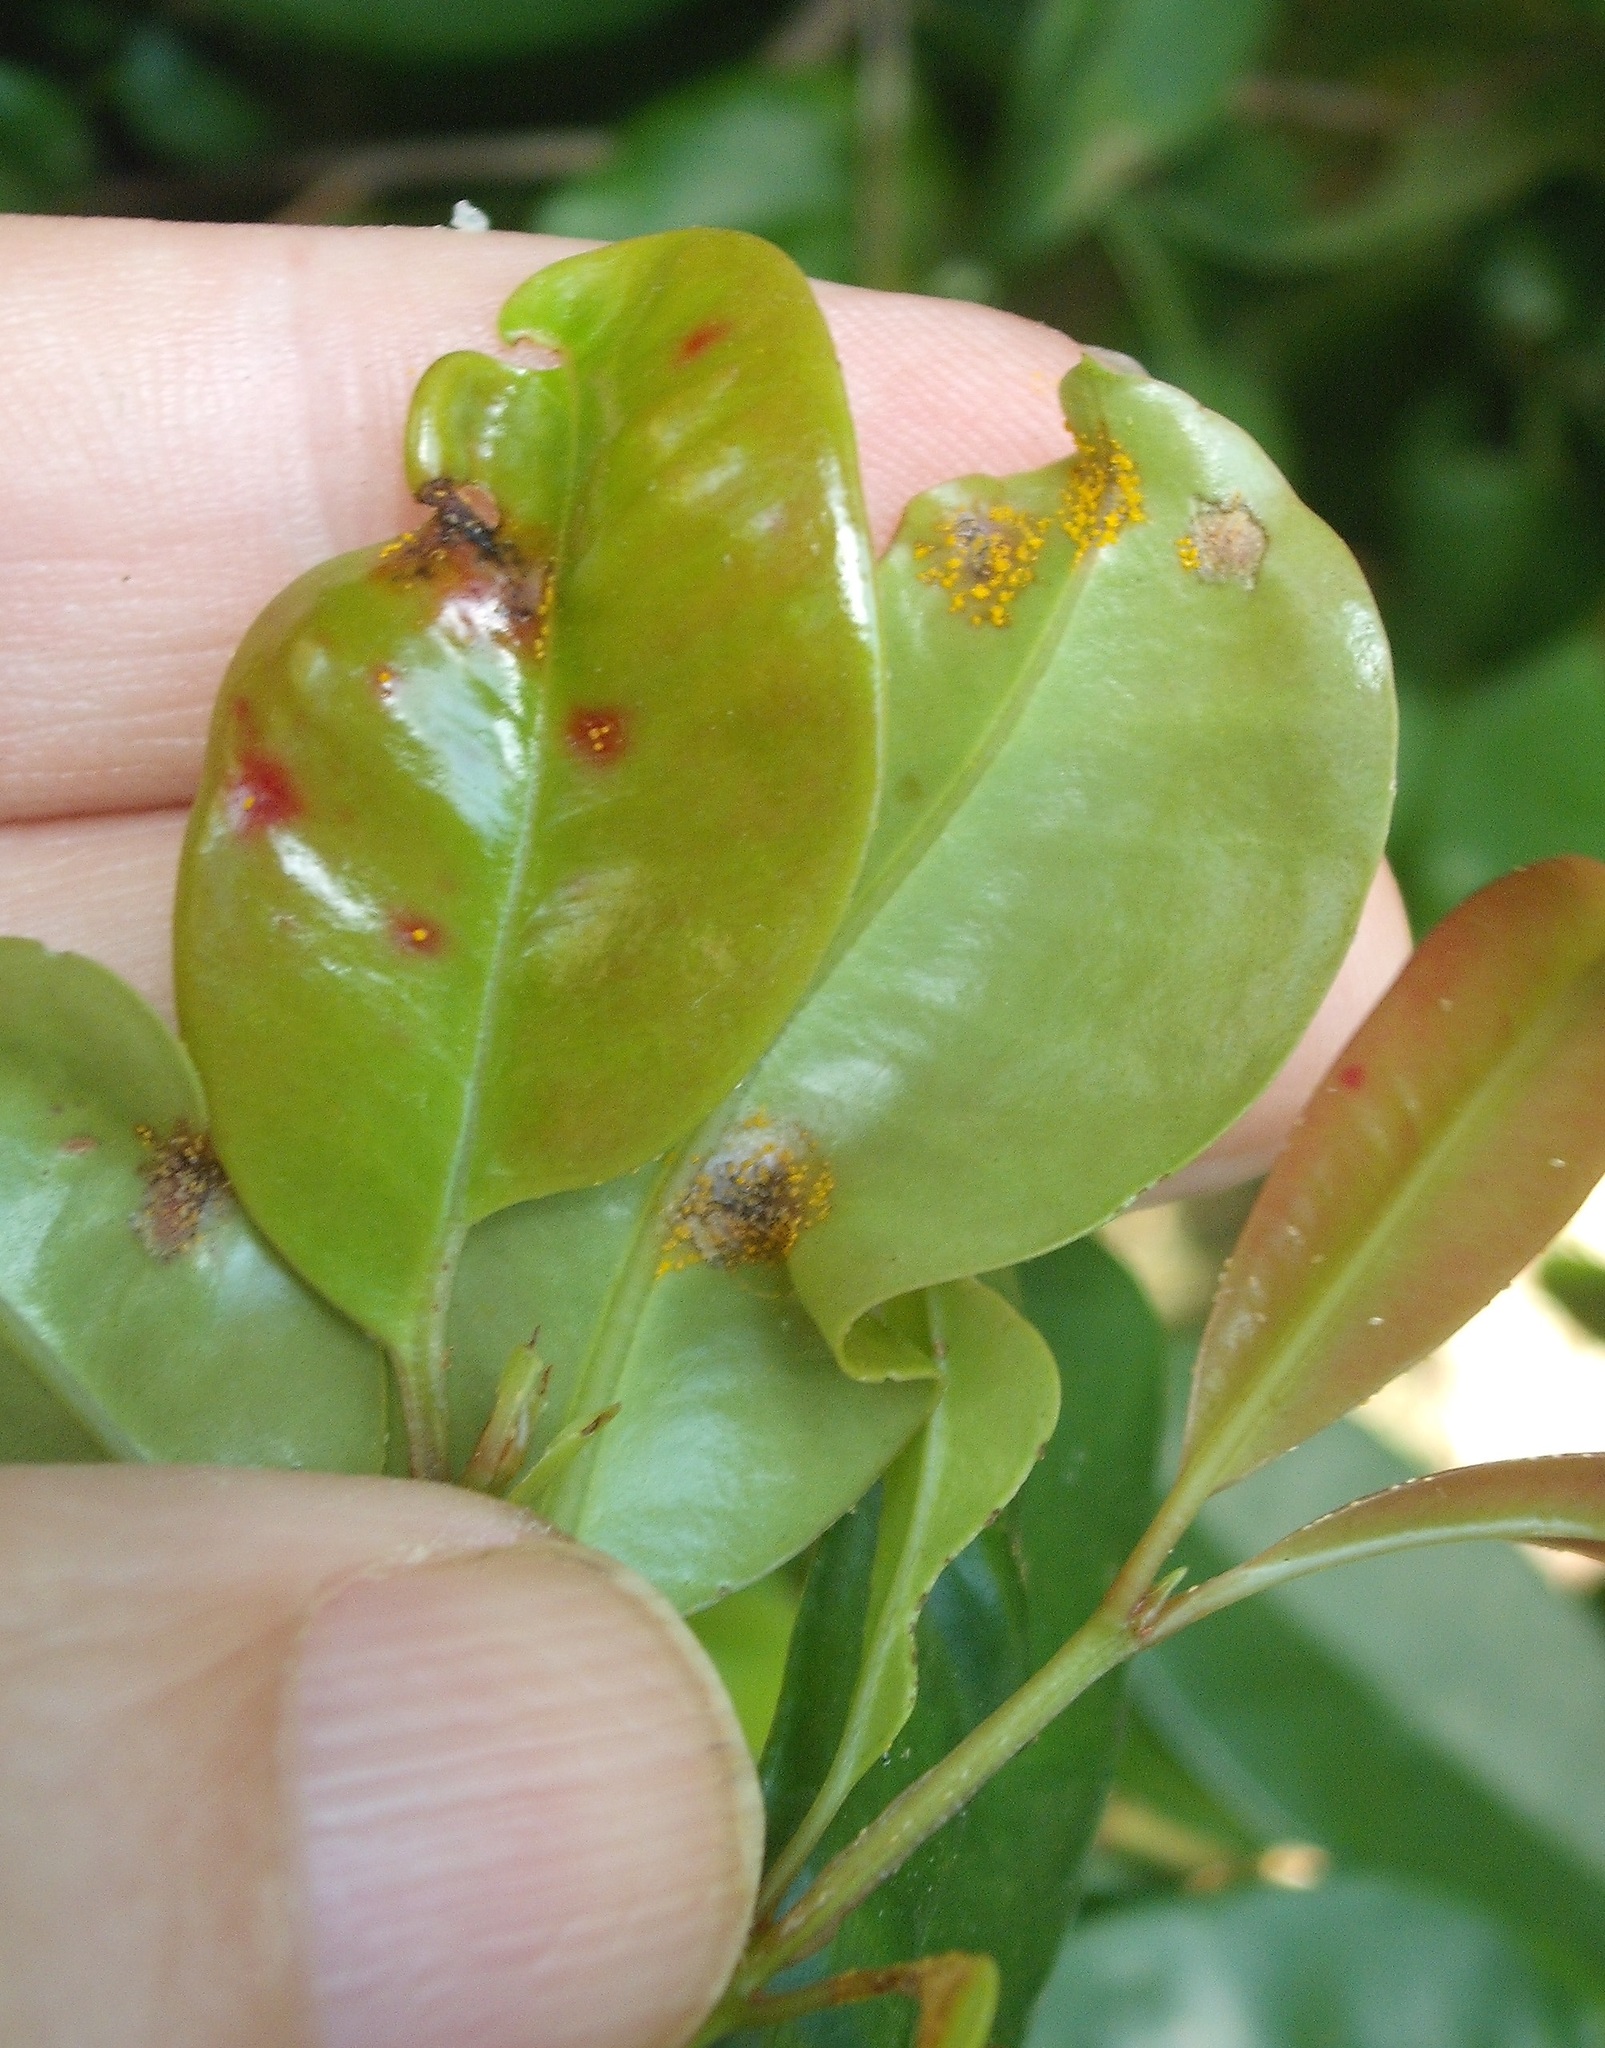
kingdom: Fungi
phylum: Basidiomycota
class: Pucciniomycetes
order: Pucciniales
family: Sphaerophragmiaceae
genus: Austropuccinia
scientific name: Austropuccinia psidii
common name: Myrtle rust
